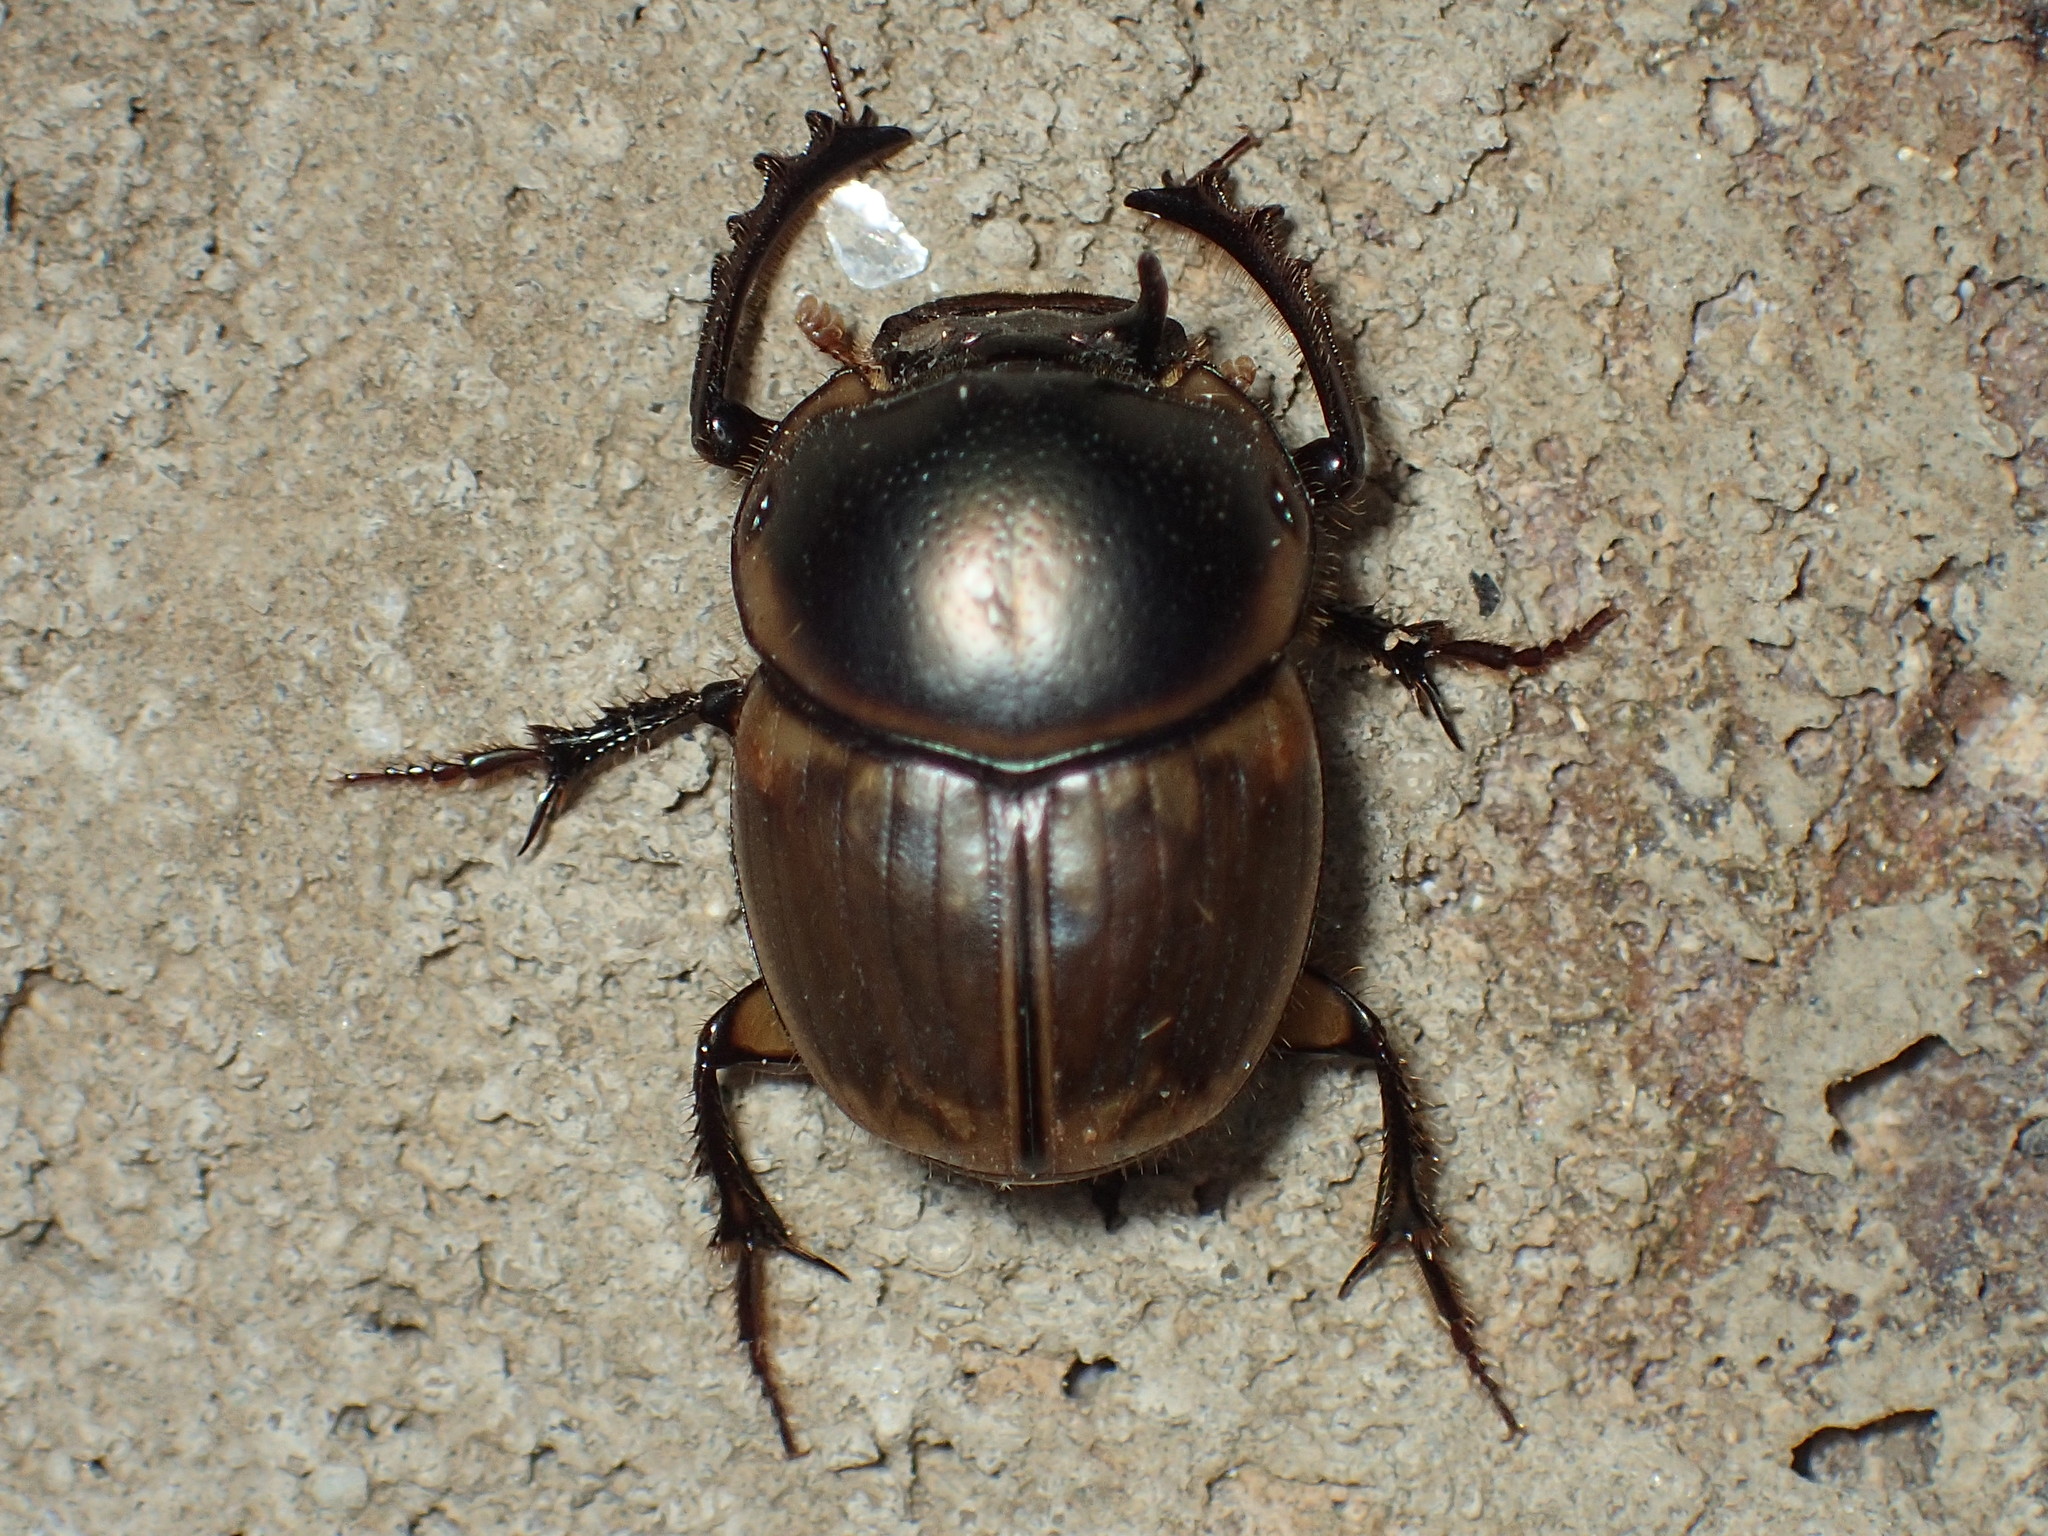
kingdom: Animalia
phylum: Arthropoda
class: Insecta
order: Coleoptera
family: Scarabaeidae
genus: Digitonthophagus
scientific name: Digitonthophagus gazella
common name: Brown dung beetle
